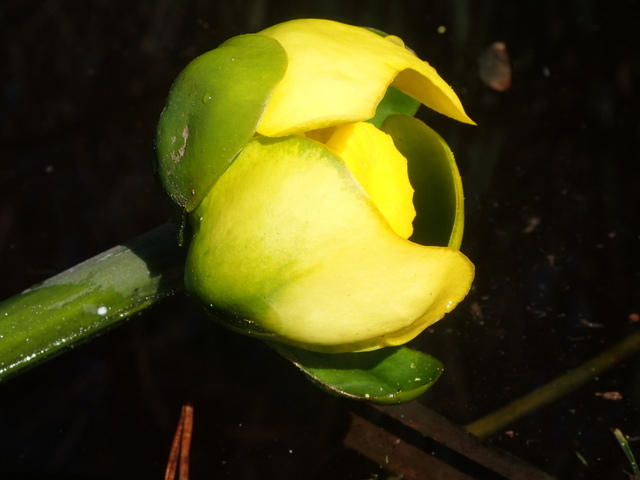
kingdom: Plantae
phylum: Tracheophyta
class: Magnoliopsida
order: Nymphaeales
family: Nymphaeaceae
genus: Nuphar
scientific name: Nuphar advena
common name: Spatter-dock
